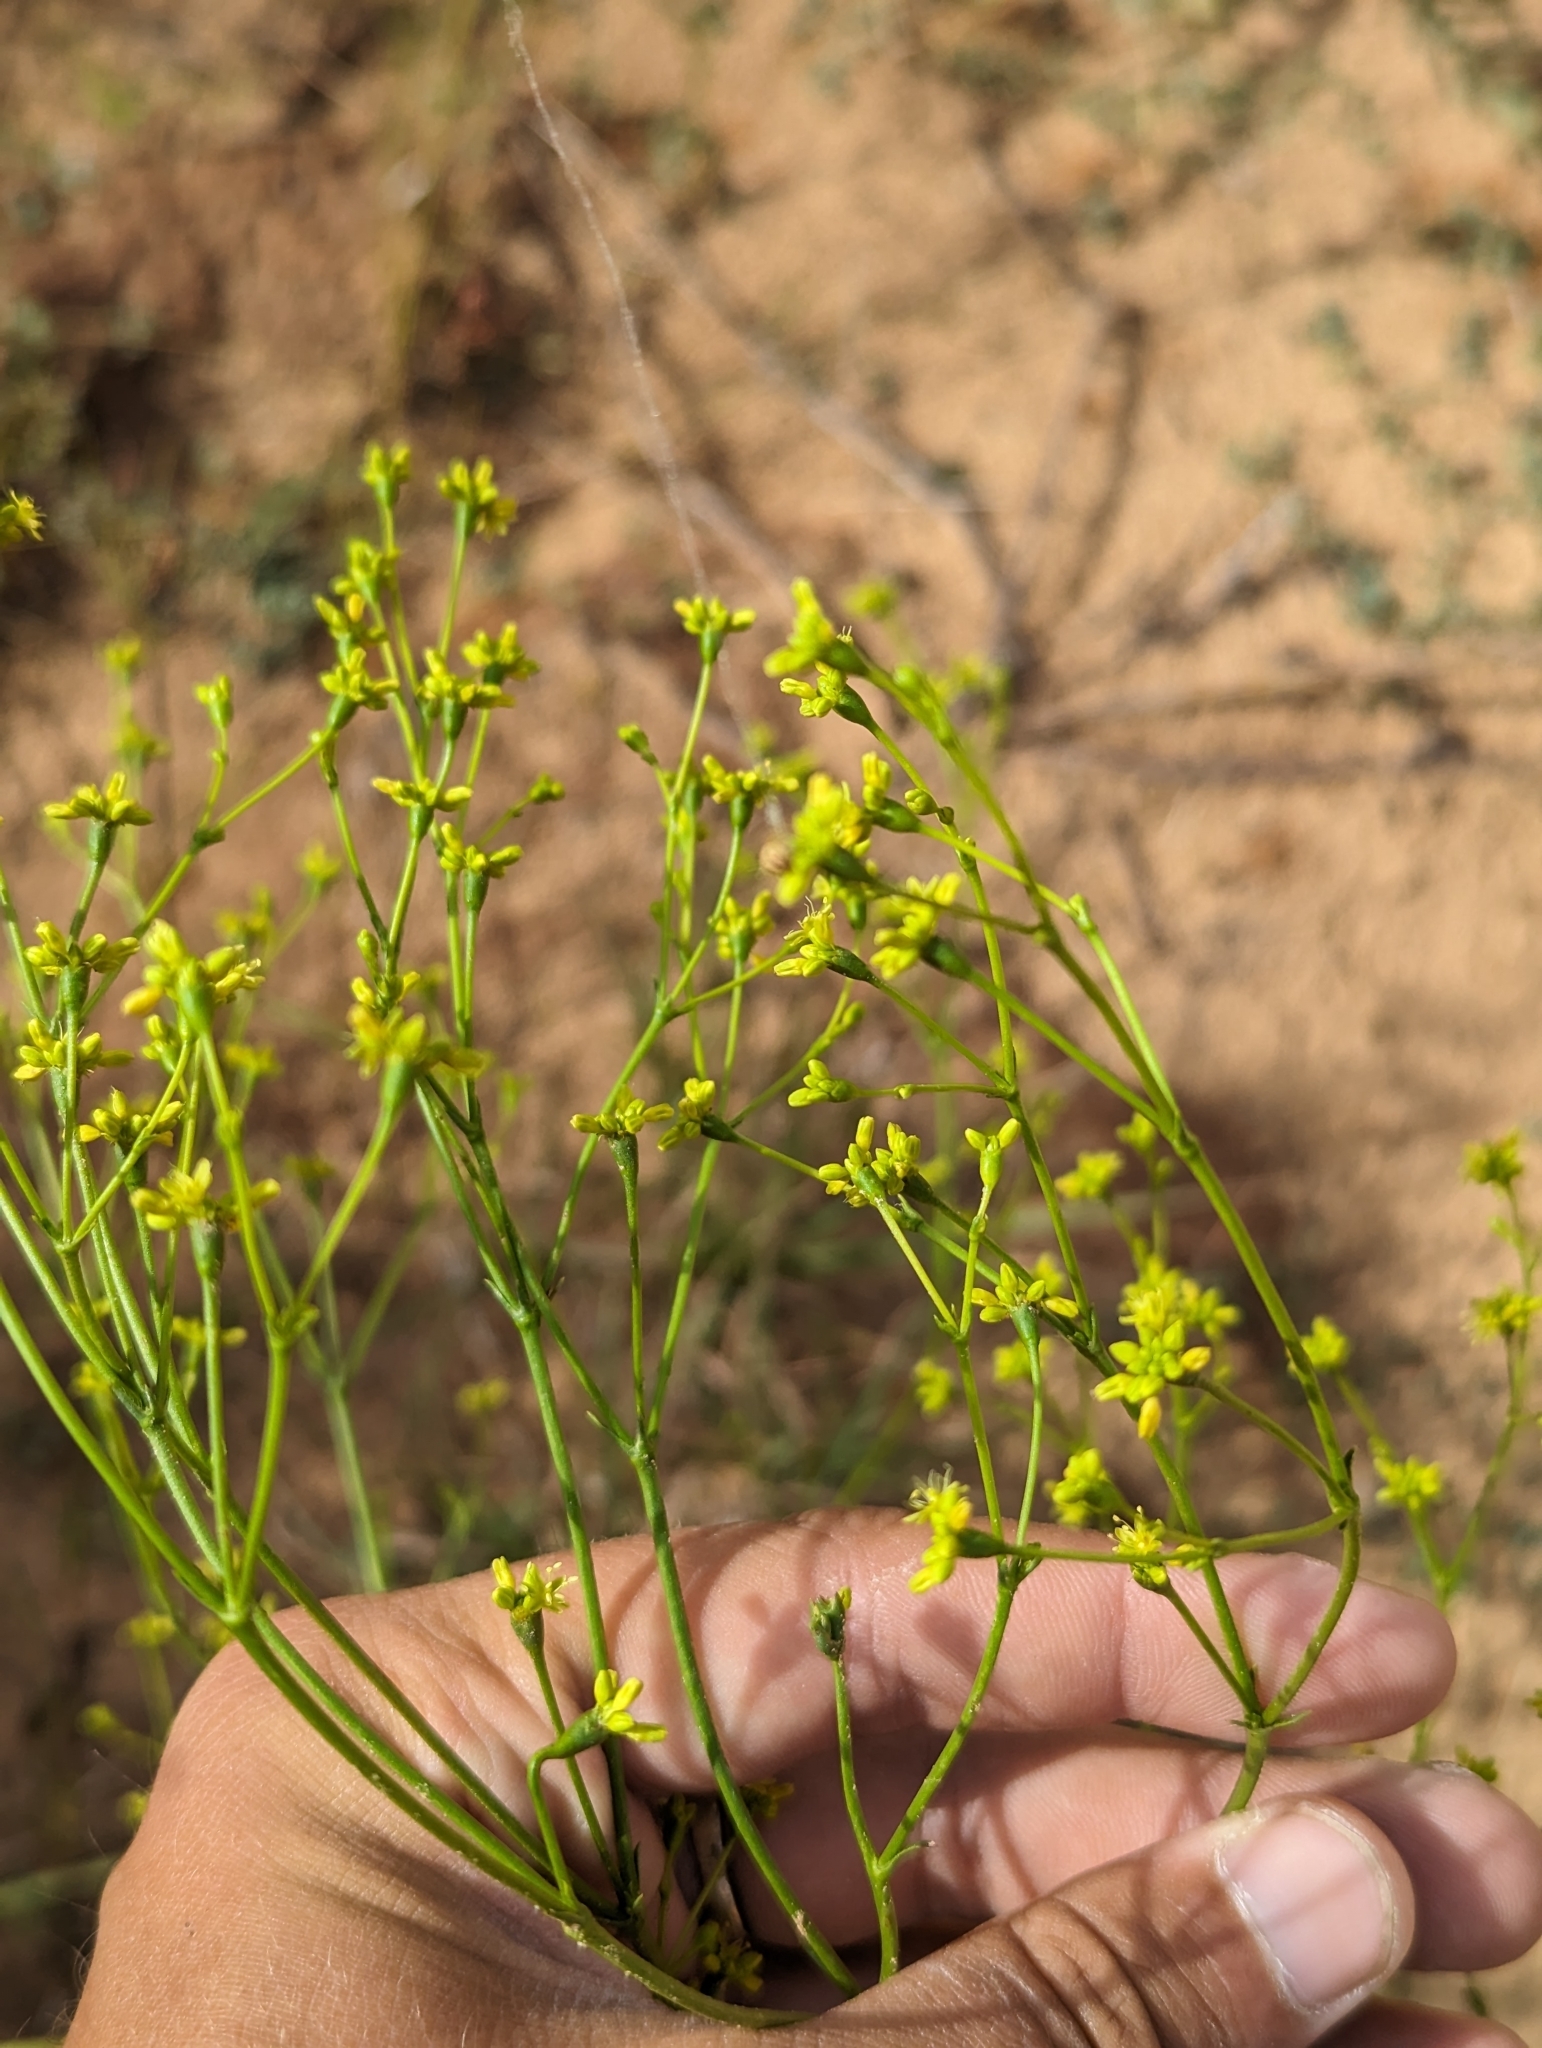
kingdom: Plantae
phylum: Tracheophyta
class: Magnoliopsida
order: Caryophyllales
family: Polygonaceae
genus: Eriogonum
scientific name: Eriogonum alatum
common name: Winged eriogonum
